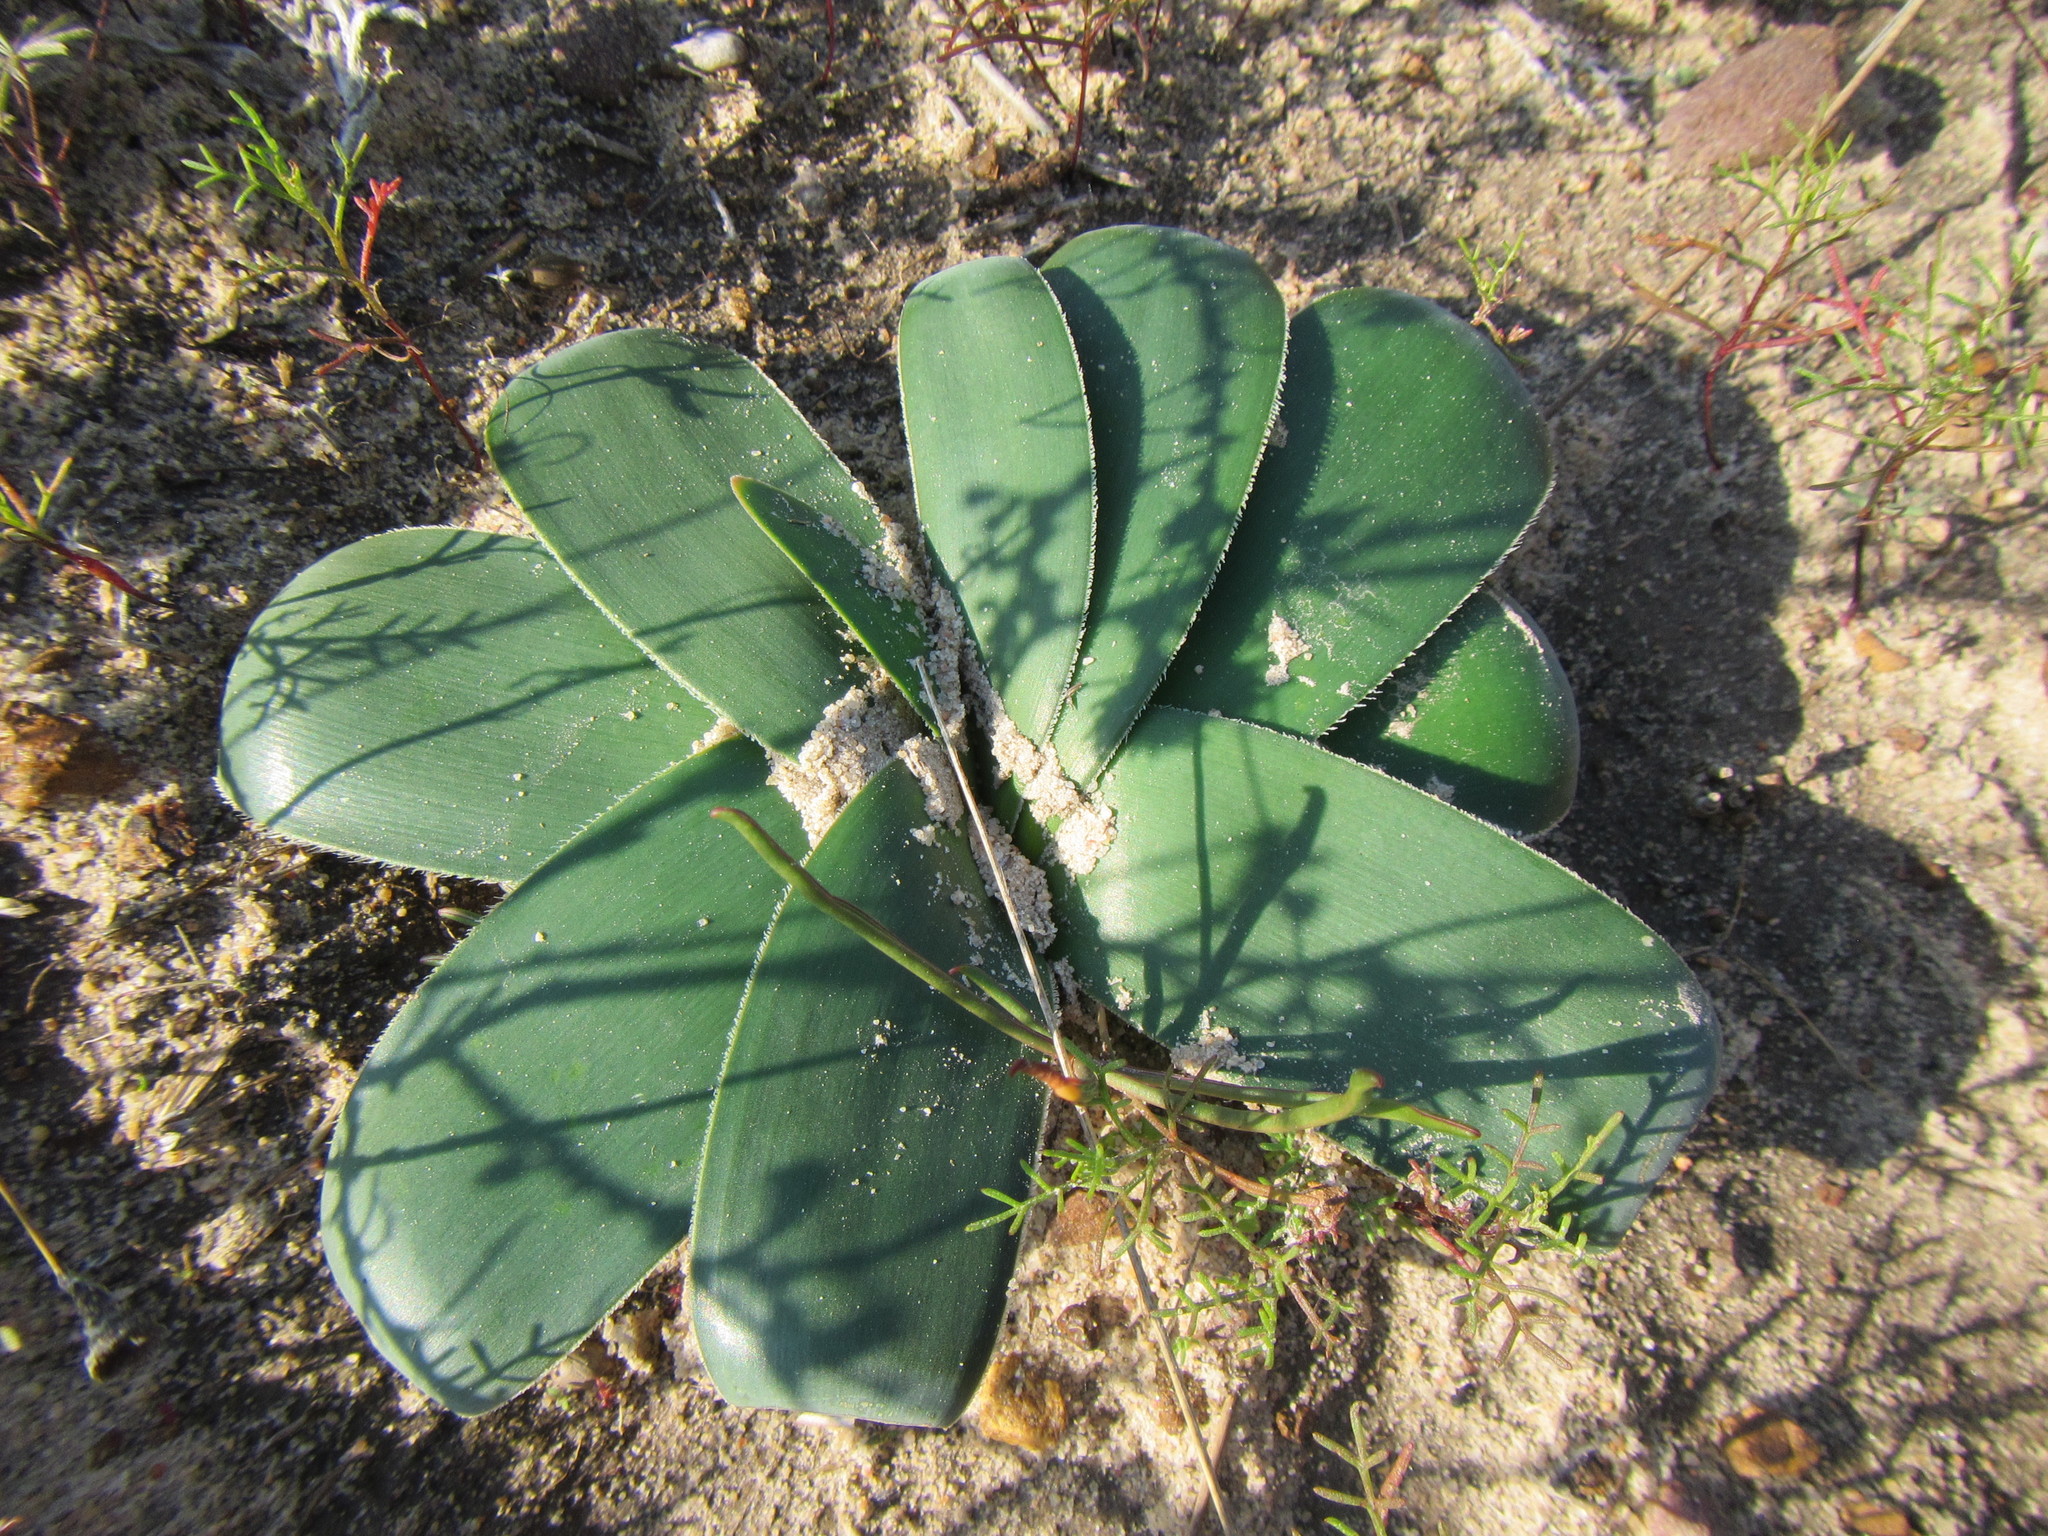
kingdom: Plantae
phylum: Tracheophyta
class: Liliopsida
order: Asparagales
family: Amaryllidaceae
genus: Ammocharis
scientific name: Ammocharis longifolia
